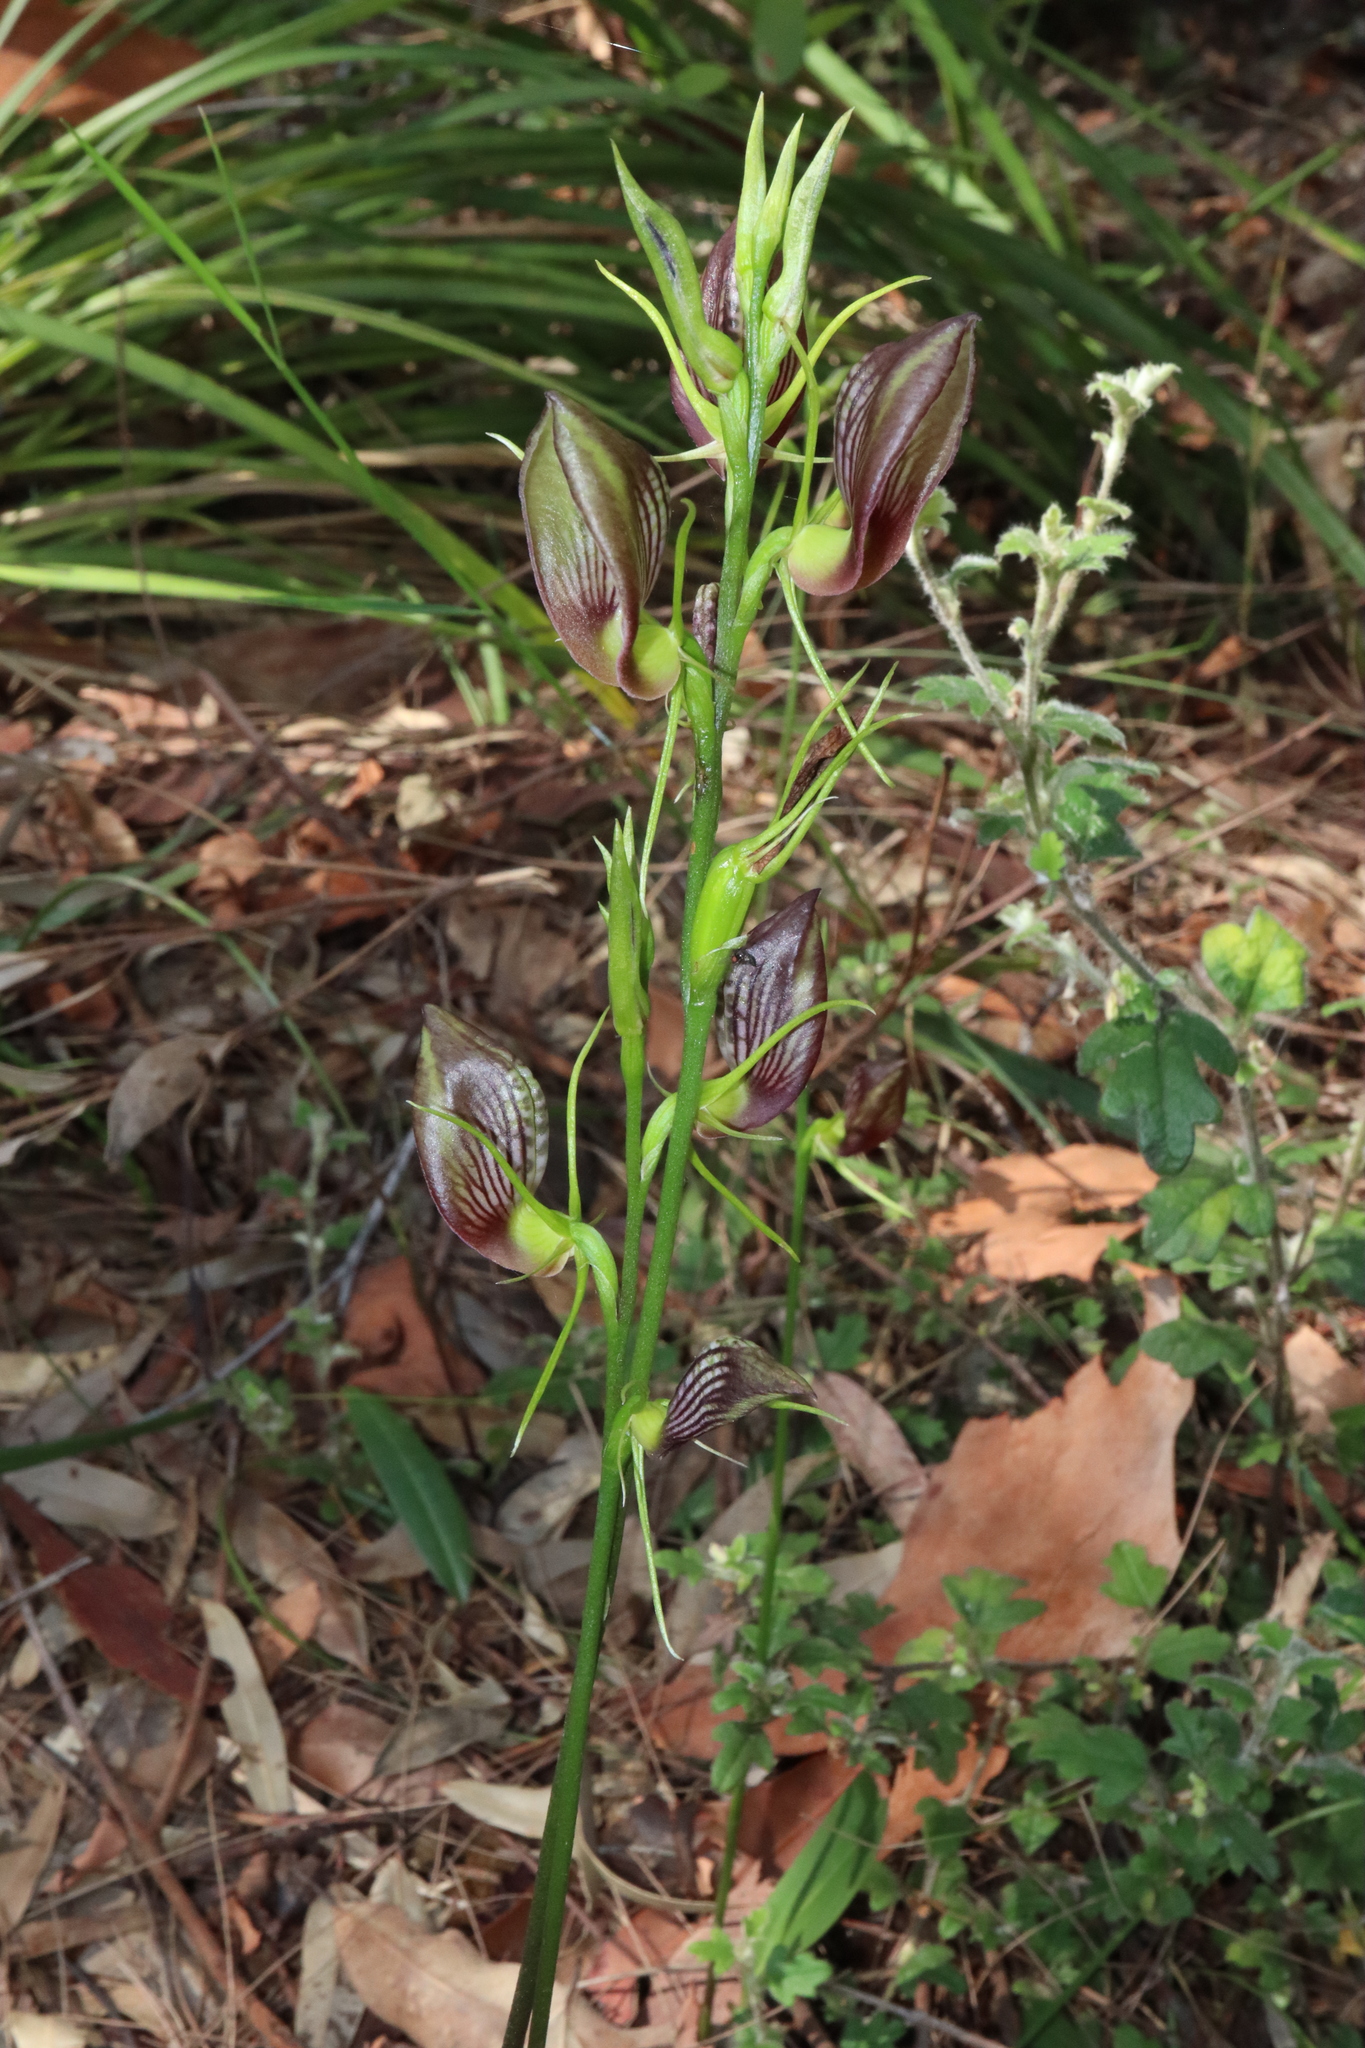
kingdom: Plantae
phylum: Tracheophyta
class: Liliopsida
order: Asparagales
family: Orchidaceae
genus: Cryptostylis
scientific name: Cryptostylis erecta
